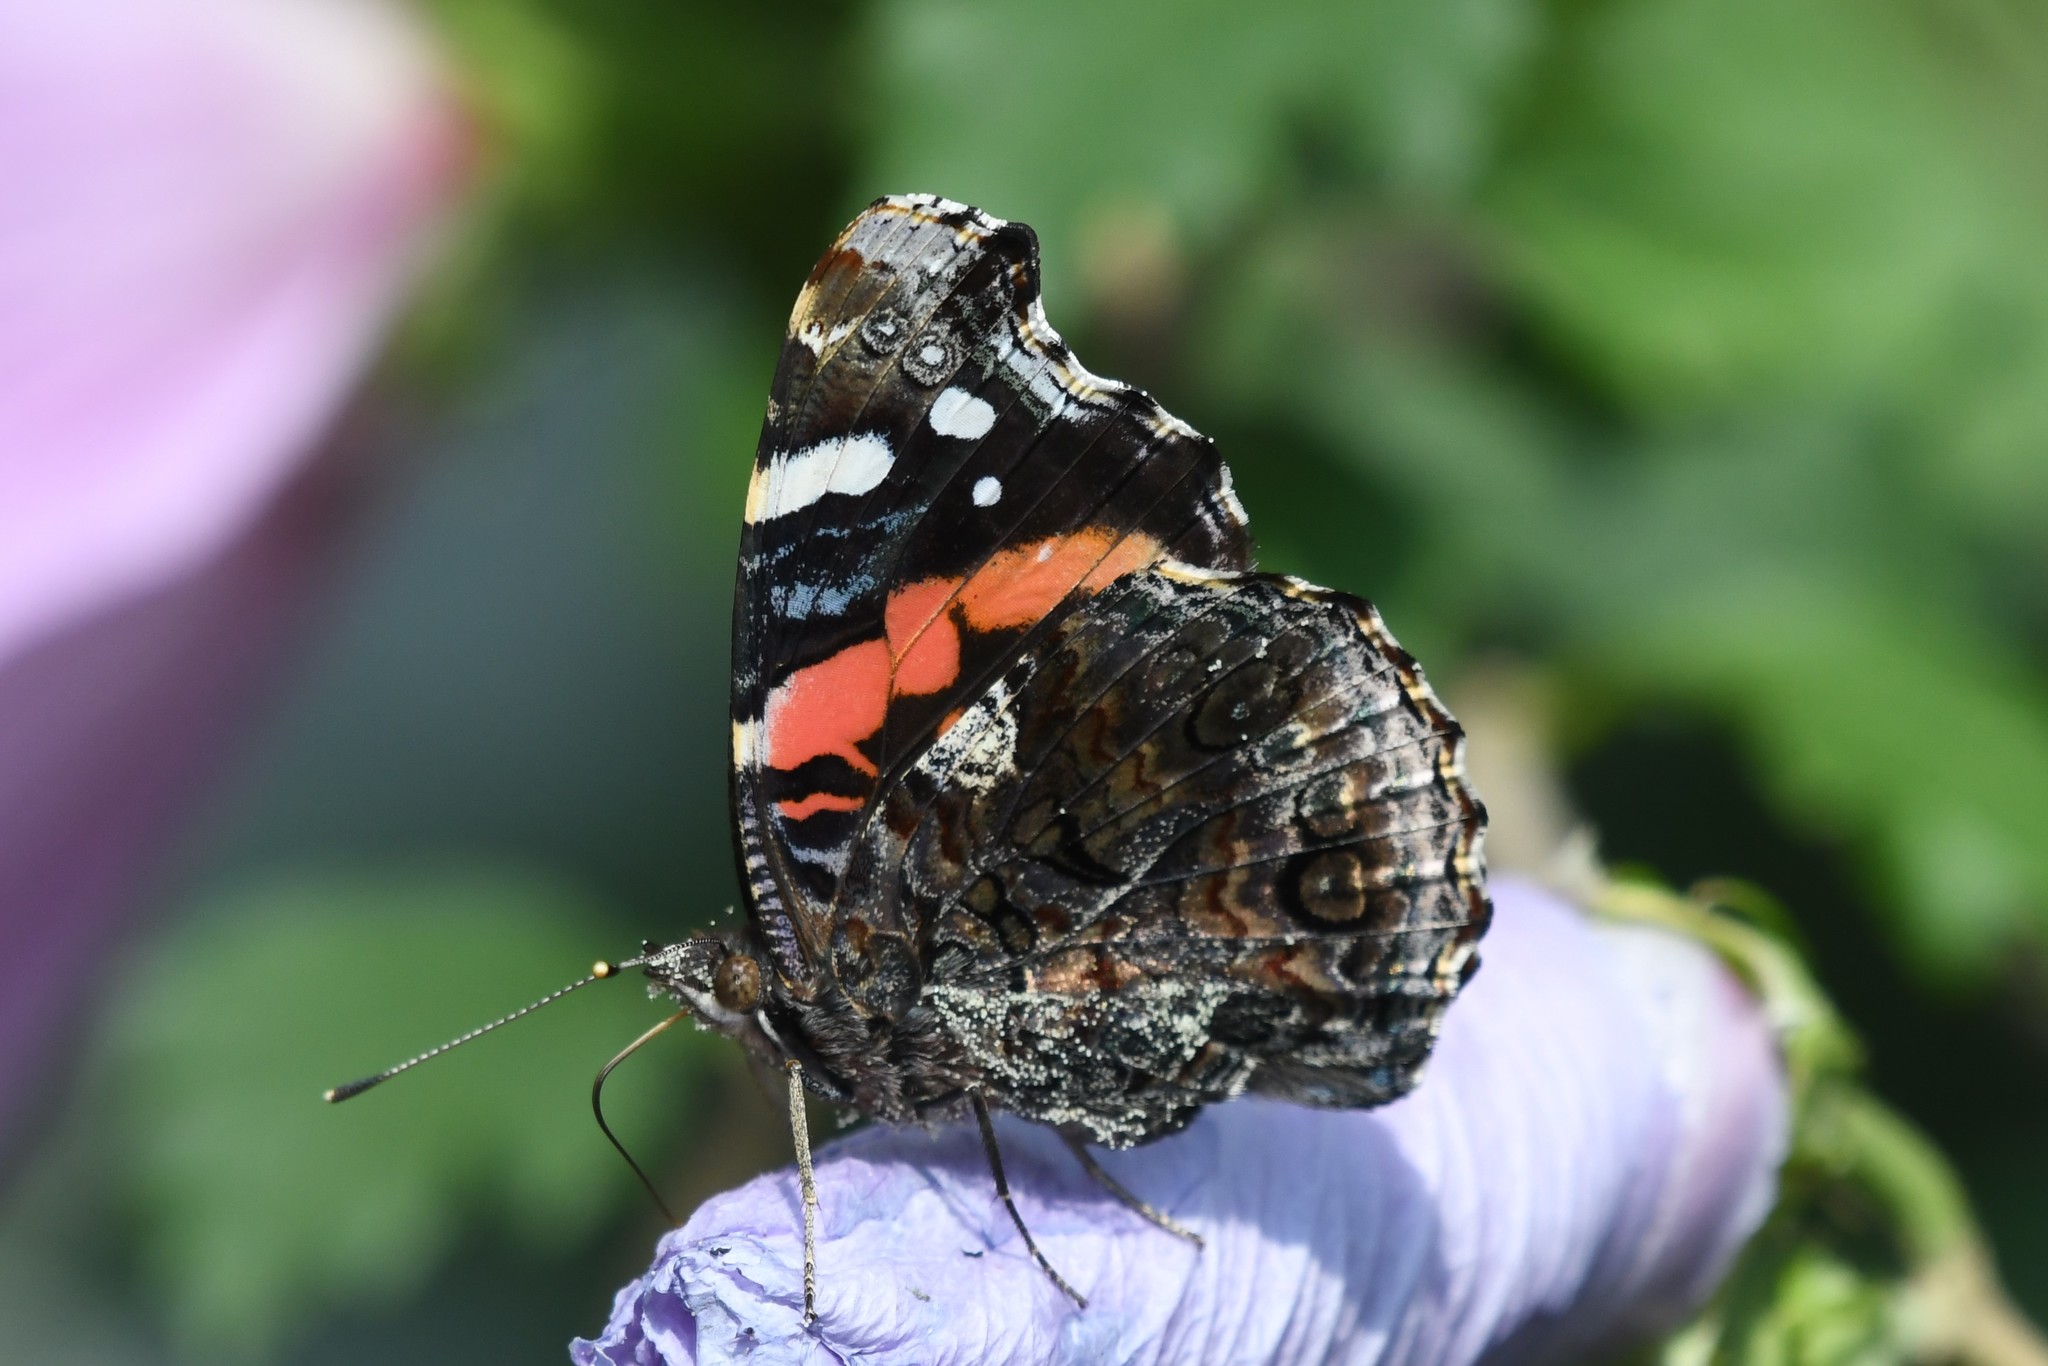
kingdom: Animalia
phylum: Arthropoda
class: Insecta
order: Lepidoptera
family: Nymphalidae
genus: Vanessa
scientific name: Vanessa atalanta
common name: Red admiral
